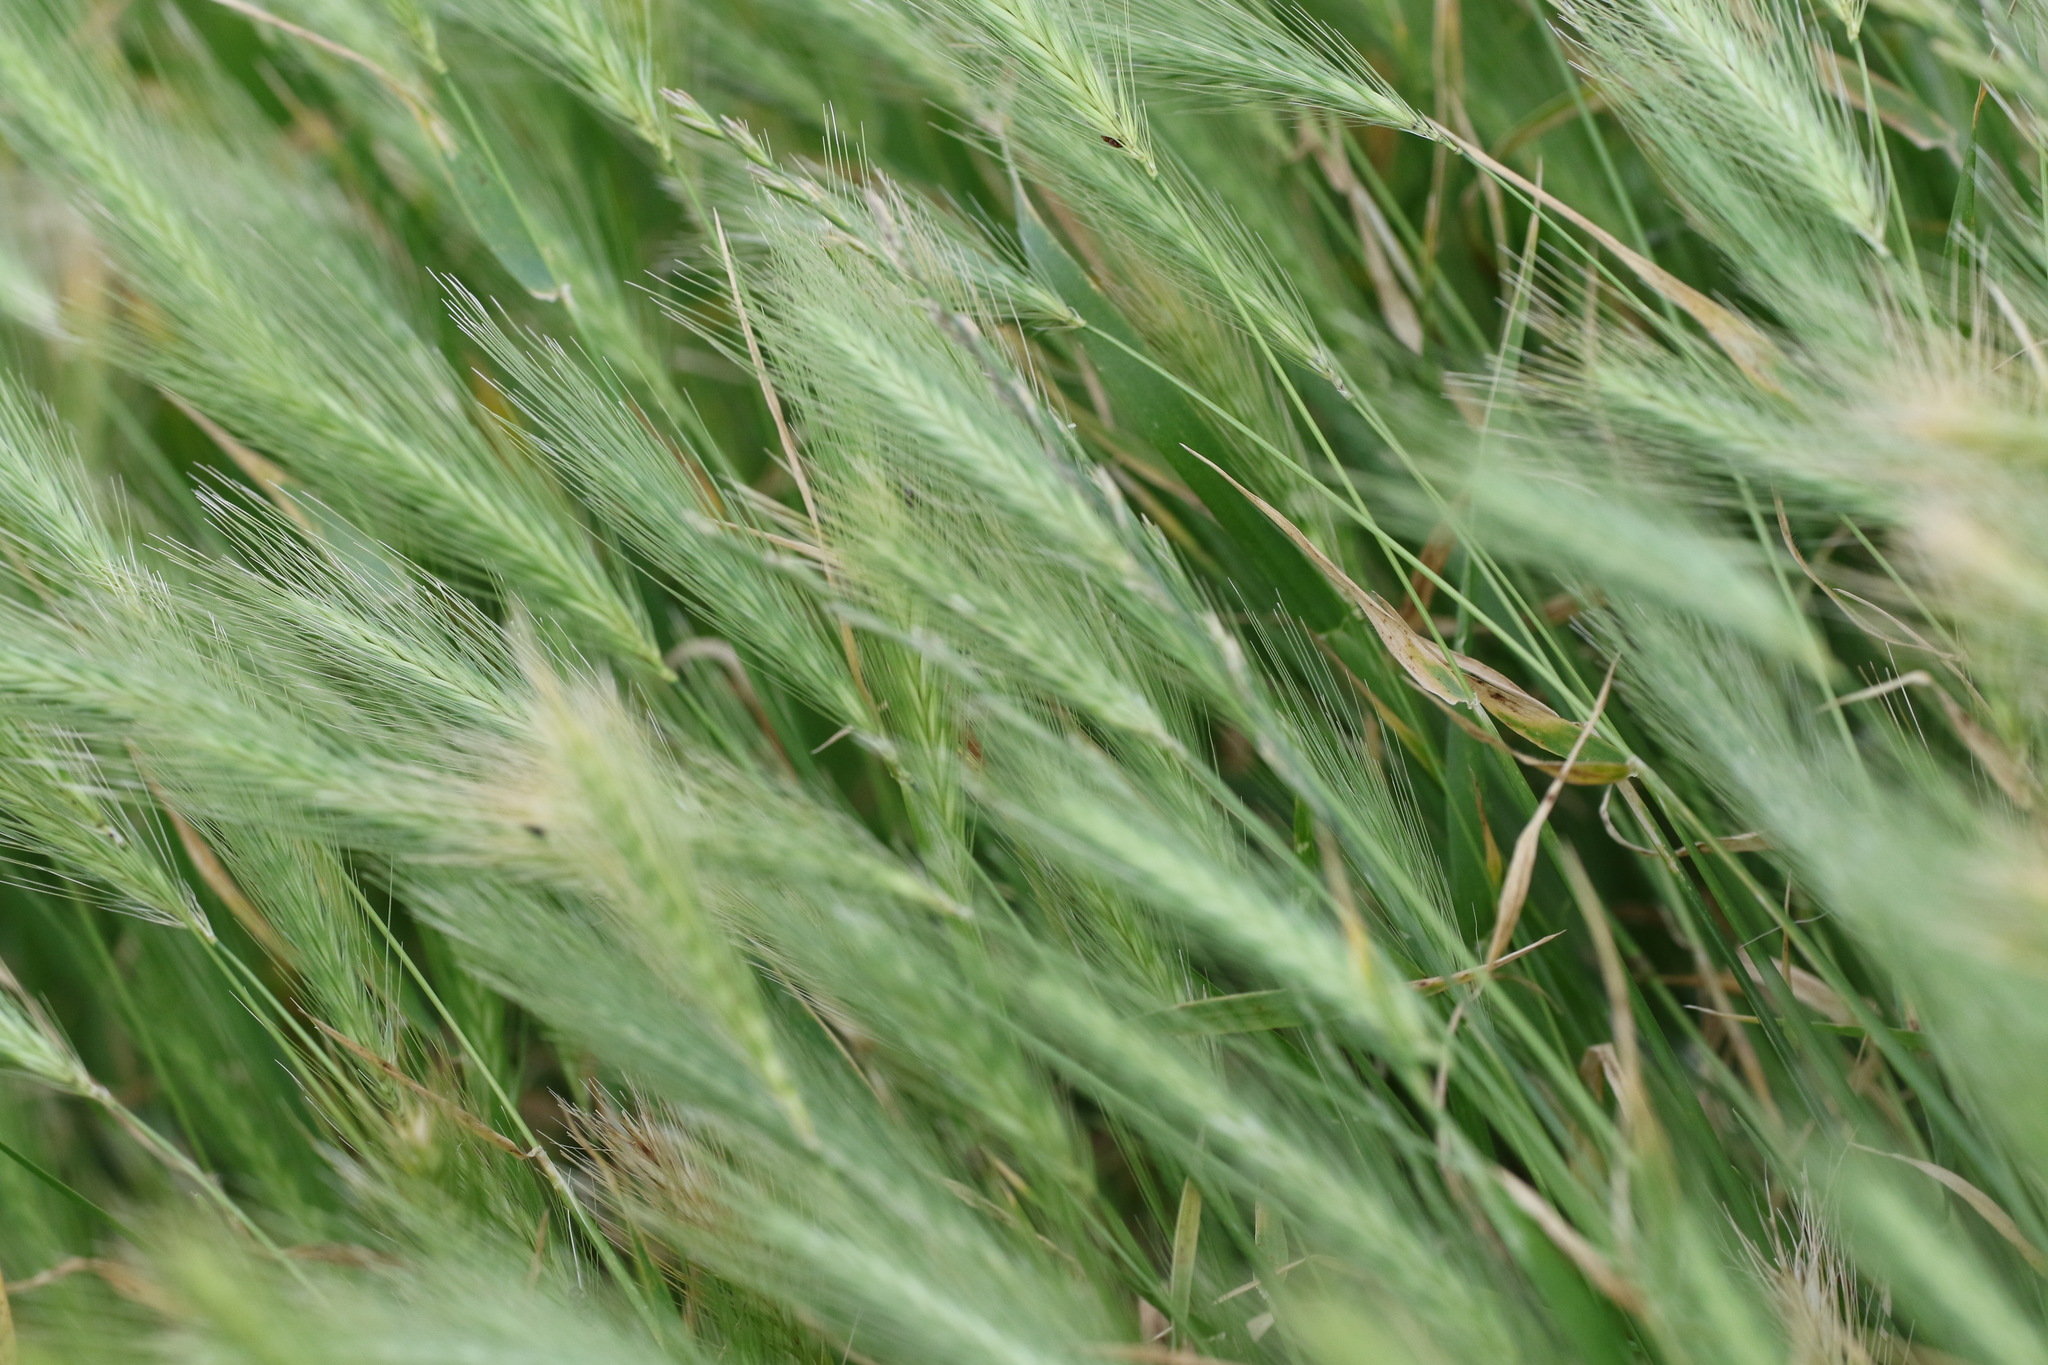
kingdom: Plantae
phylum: Tracheophyta
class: Liliopsida
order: Poales
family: Poaceae
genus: Hordeum
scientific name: Hordeum murinum
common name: Wall barley
